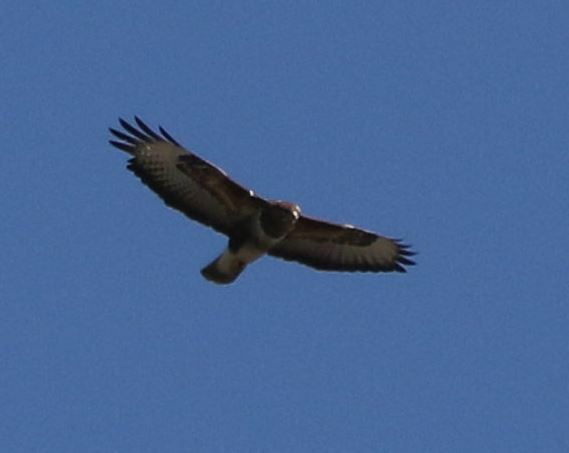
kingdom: Animalia
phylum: Chordata
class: Aves
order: Accipitriformes
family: Accipitridae
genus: Buteo
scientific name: Buteo buteo
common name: Common buzzard
